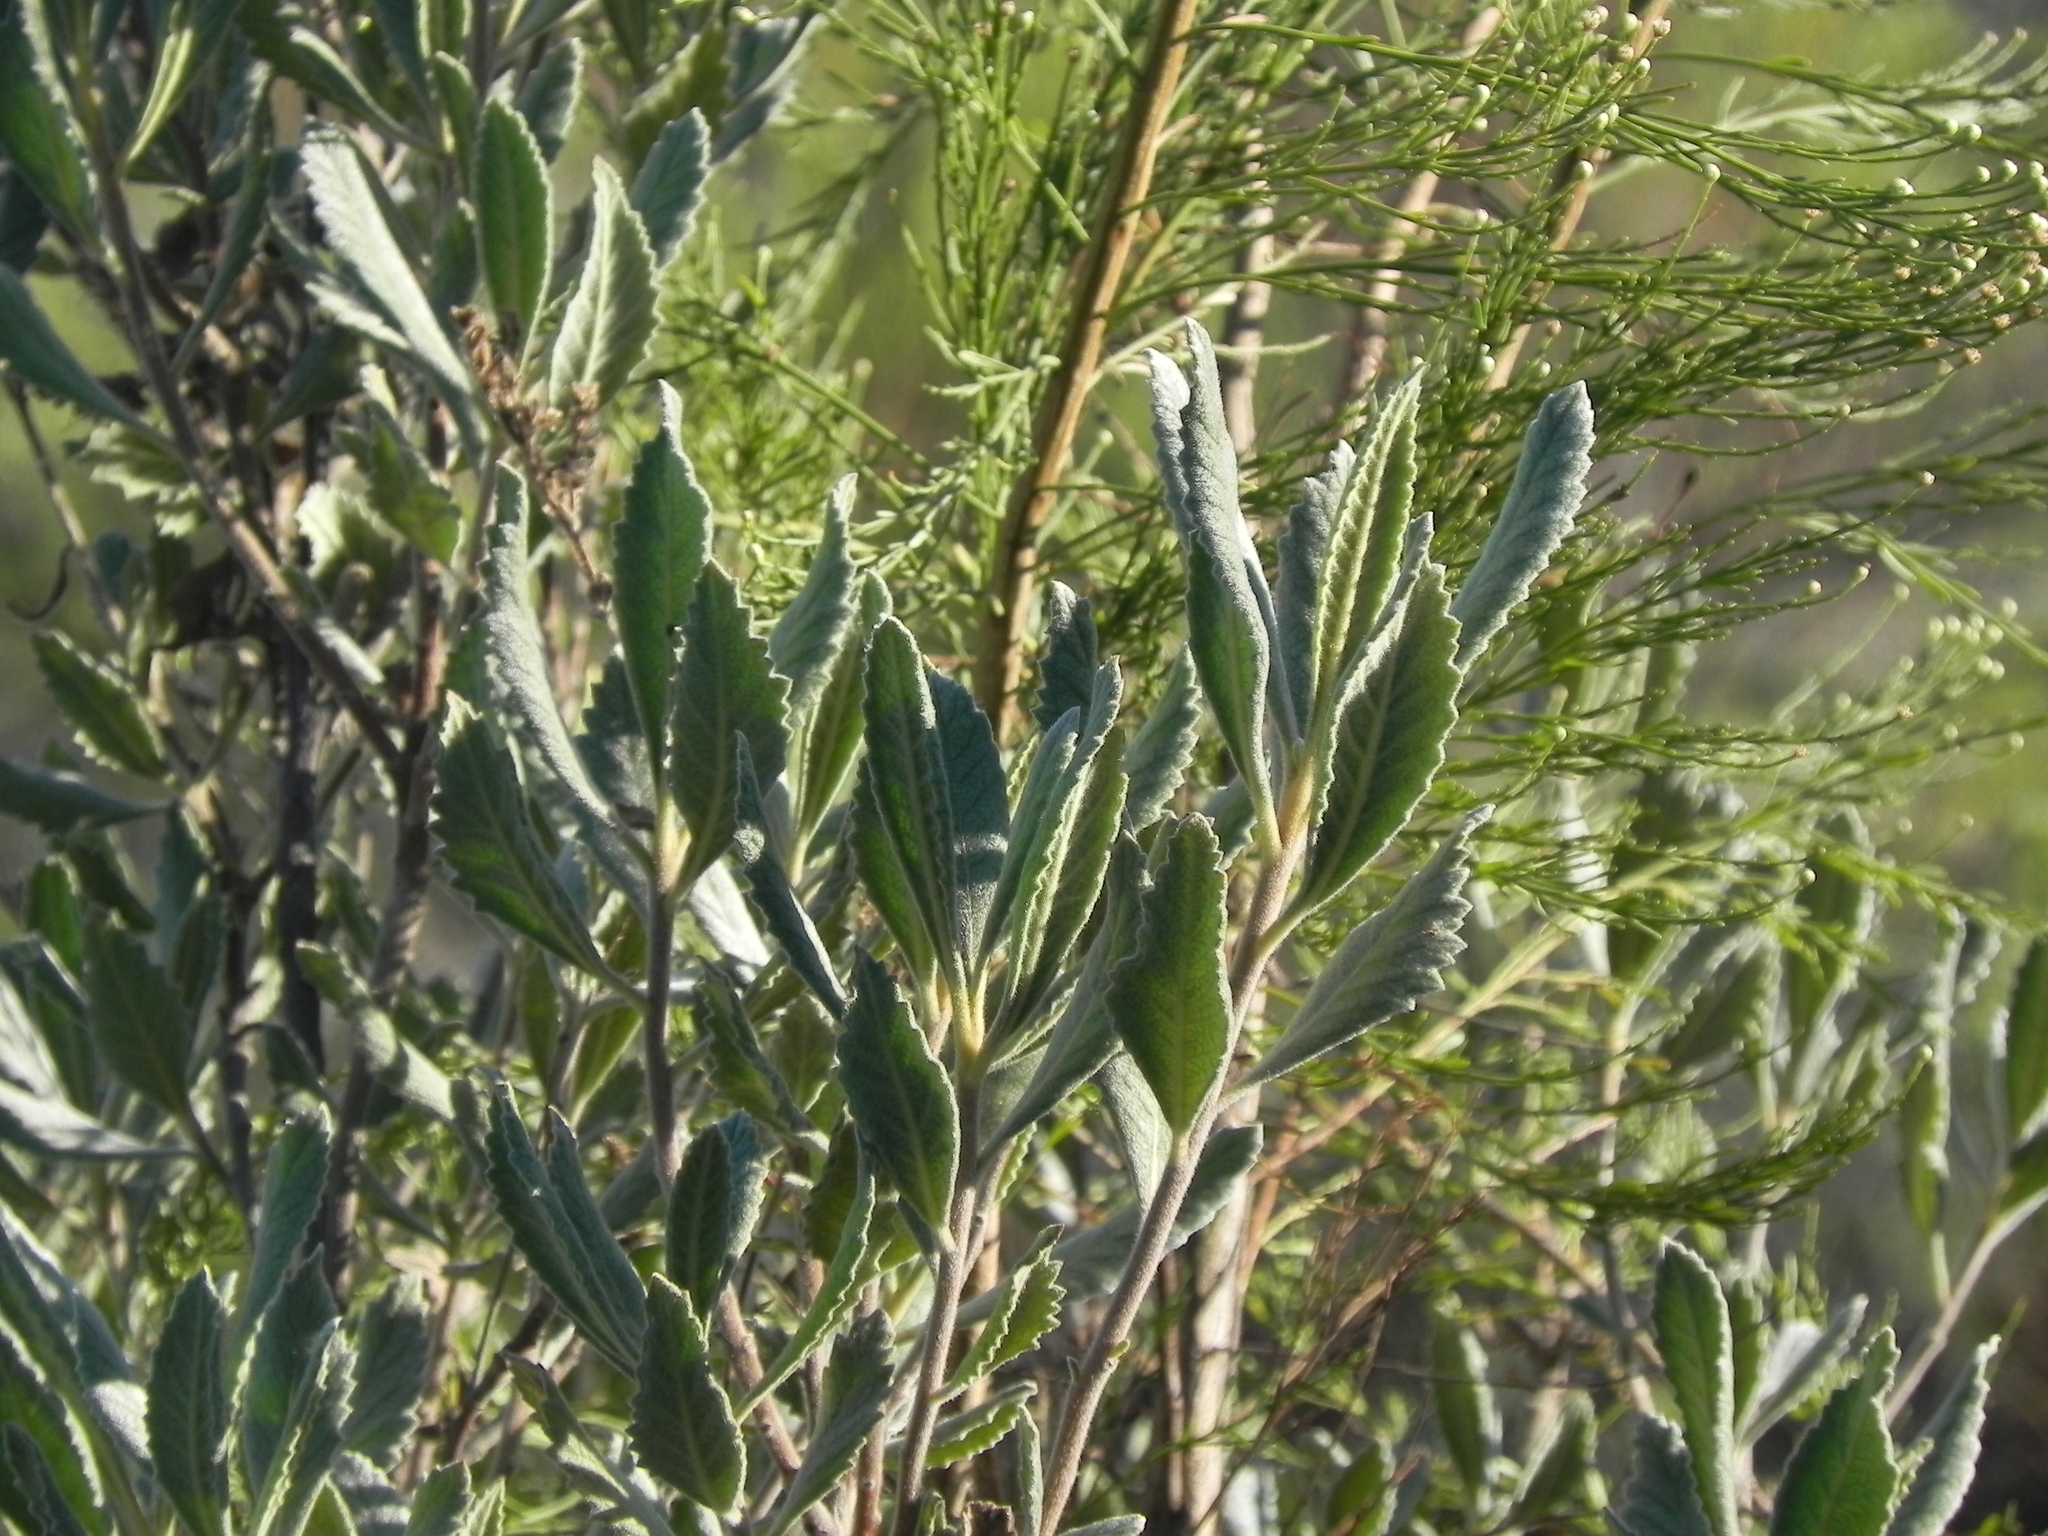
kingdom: Plantae
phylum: Tracheophyta
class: Magnoliopsida
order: Boraginales
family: Namaceae
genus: Eriodictyon
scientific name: Eriodictyon crassifolium
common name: Thick-leaf yerba-santa
